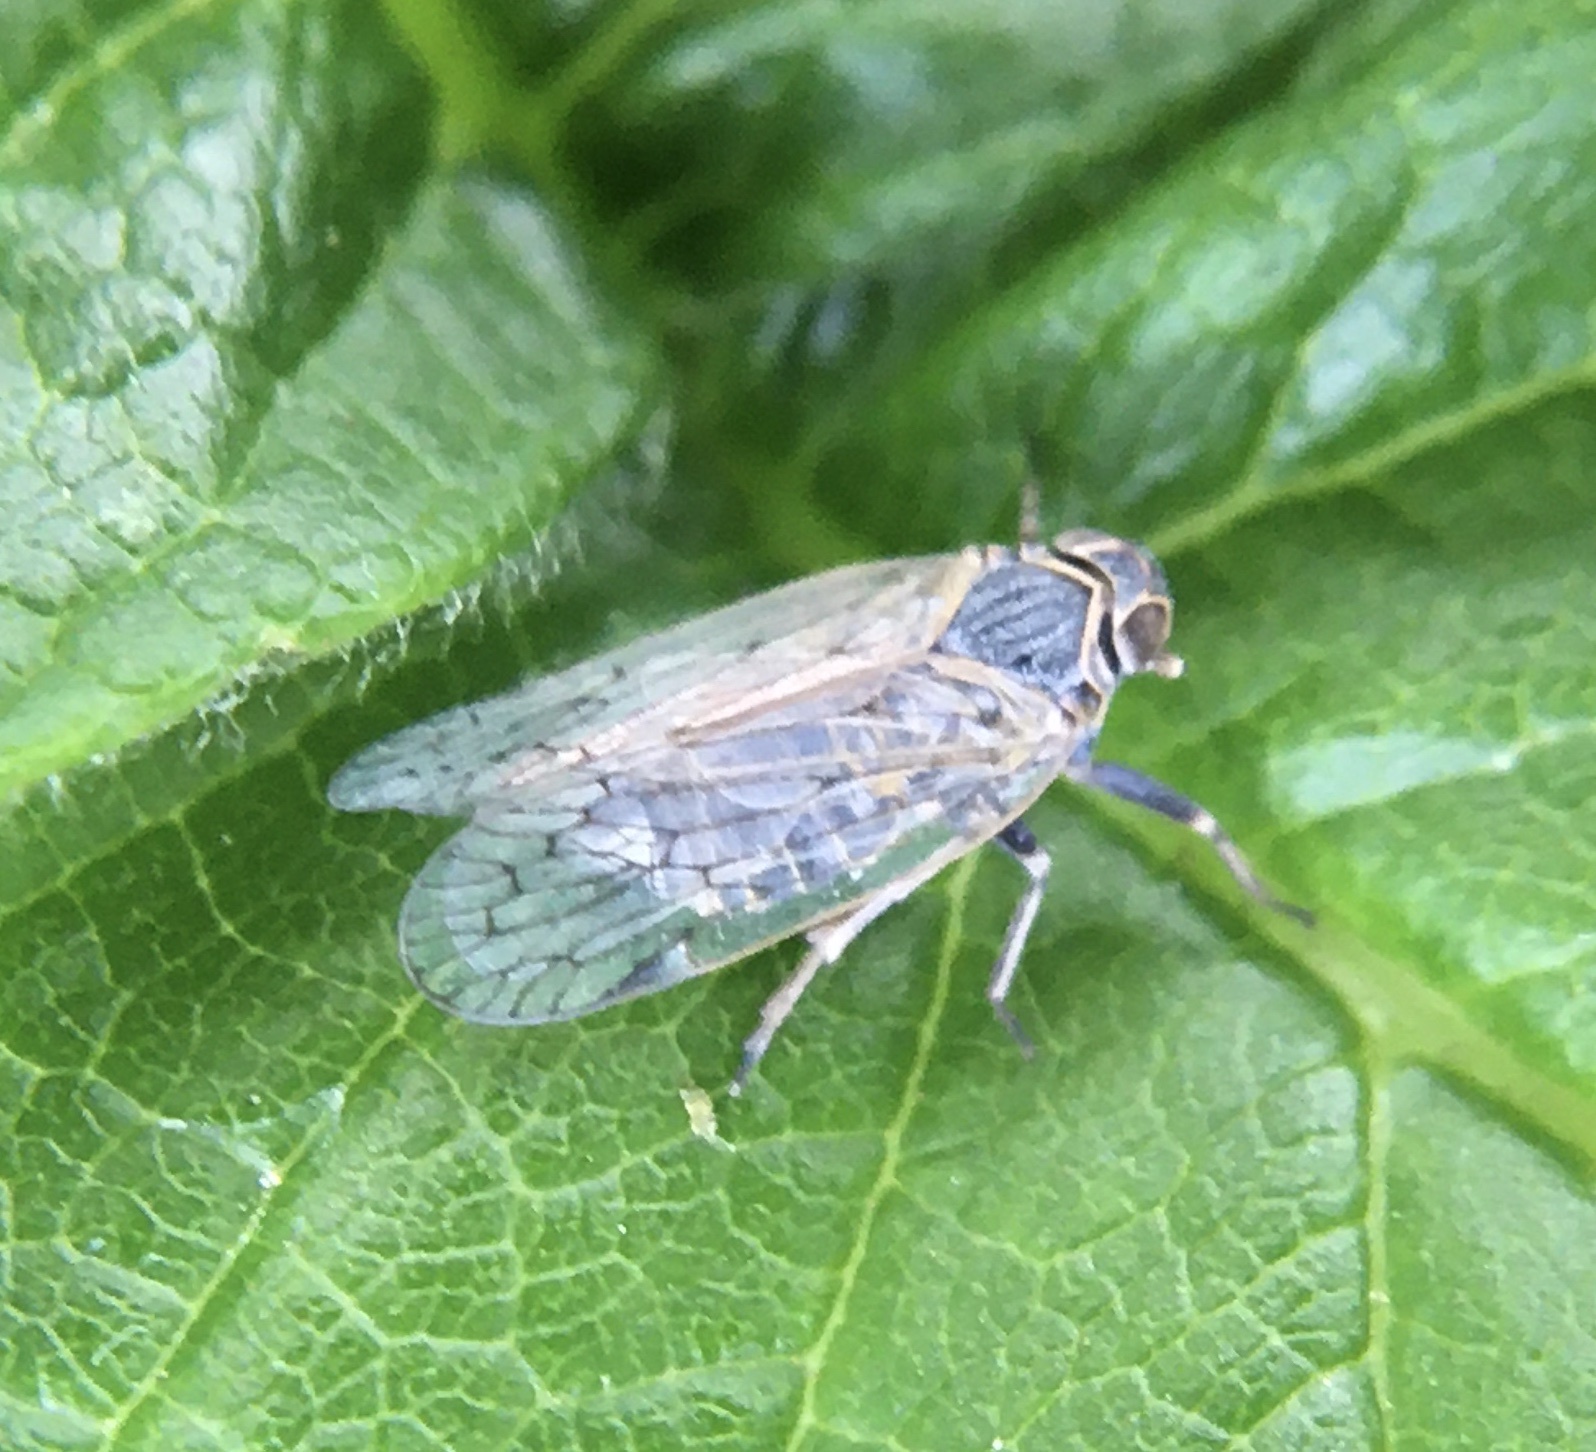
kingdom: Animalia
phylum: Arthropoda
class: Insecta
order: Hemiptera
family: Cixiidae
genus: Reptalus
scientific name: Reptalus quinquecostatus
